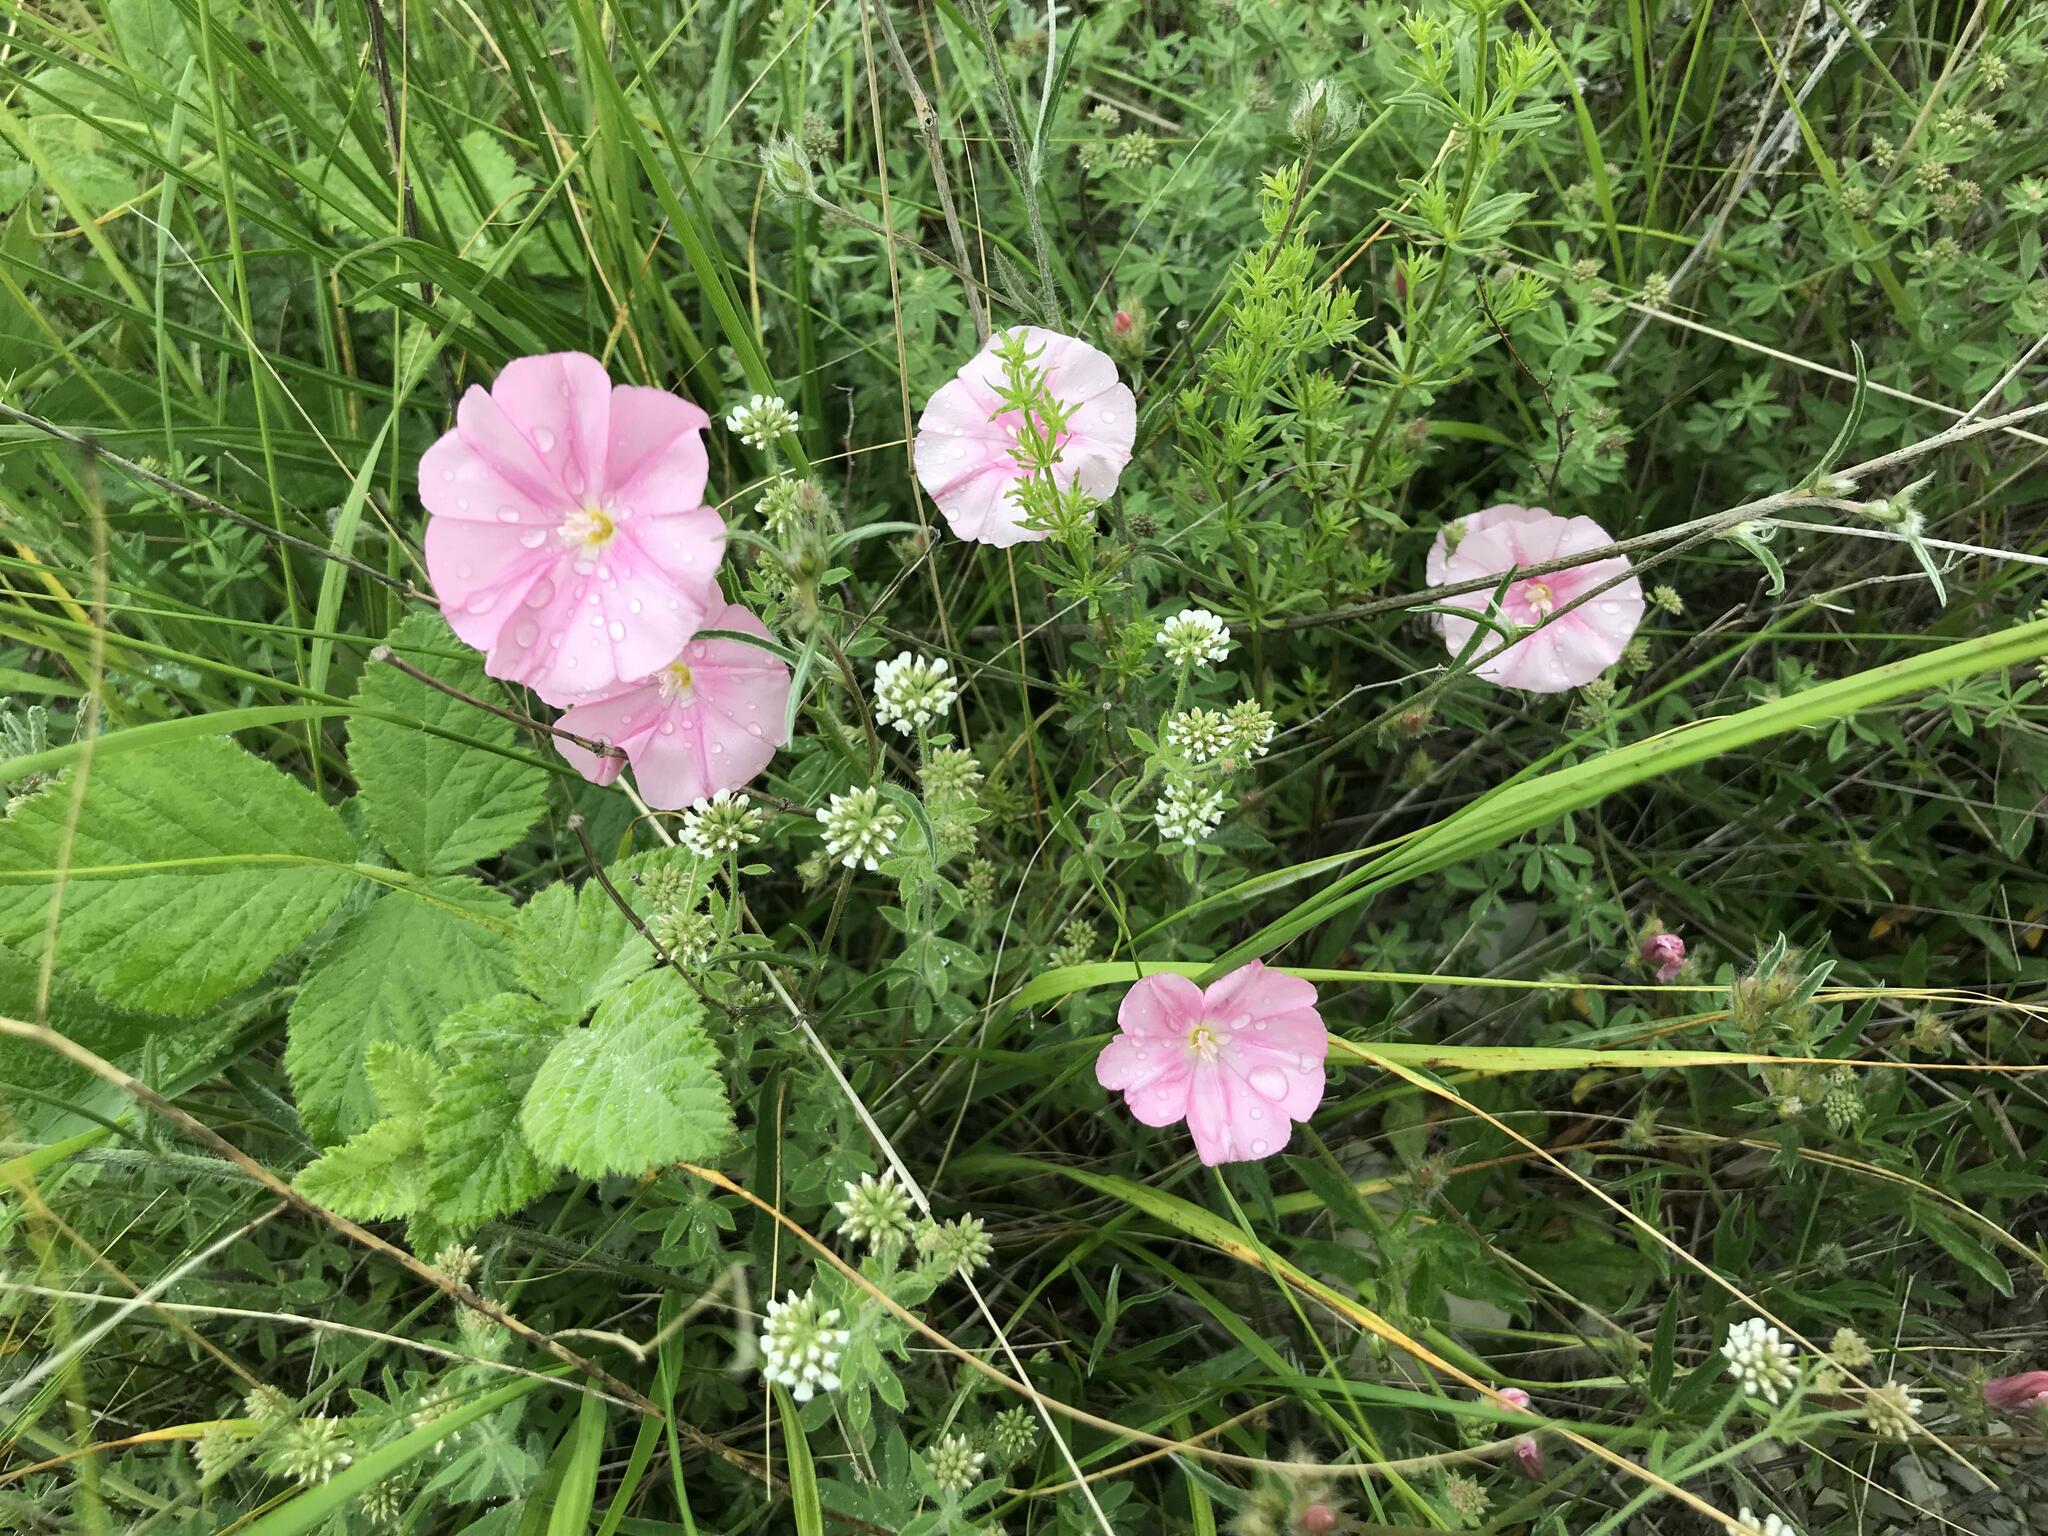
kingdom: Plantae
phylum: Tracheophyta
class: Magnoliopsida
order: Solanales
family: Convolvulaceae
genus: Convolvulus
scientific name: Convolvulus cantabrica
